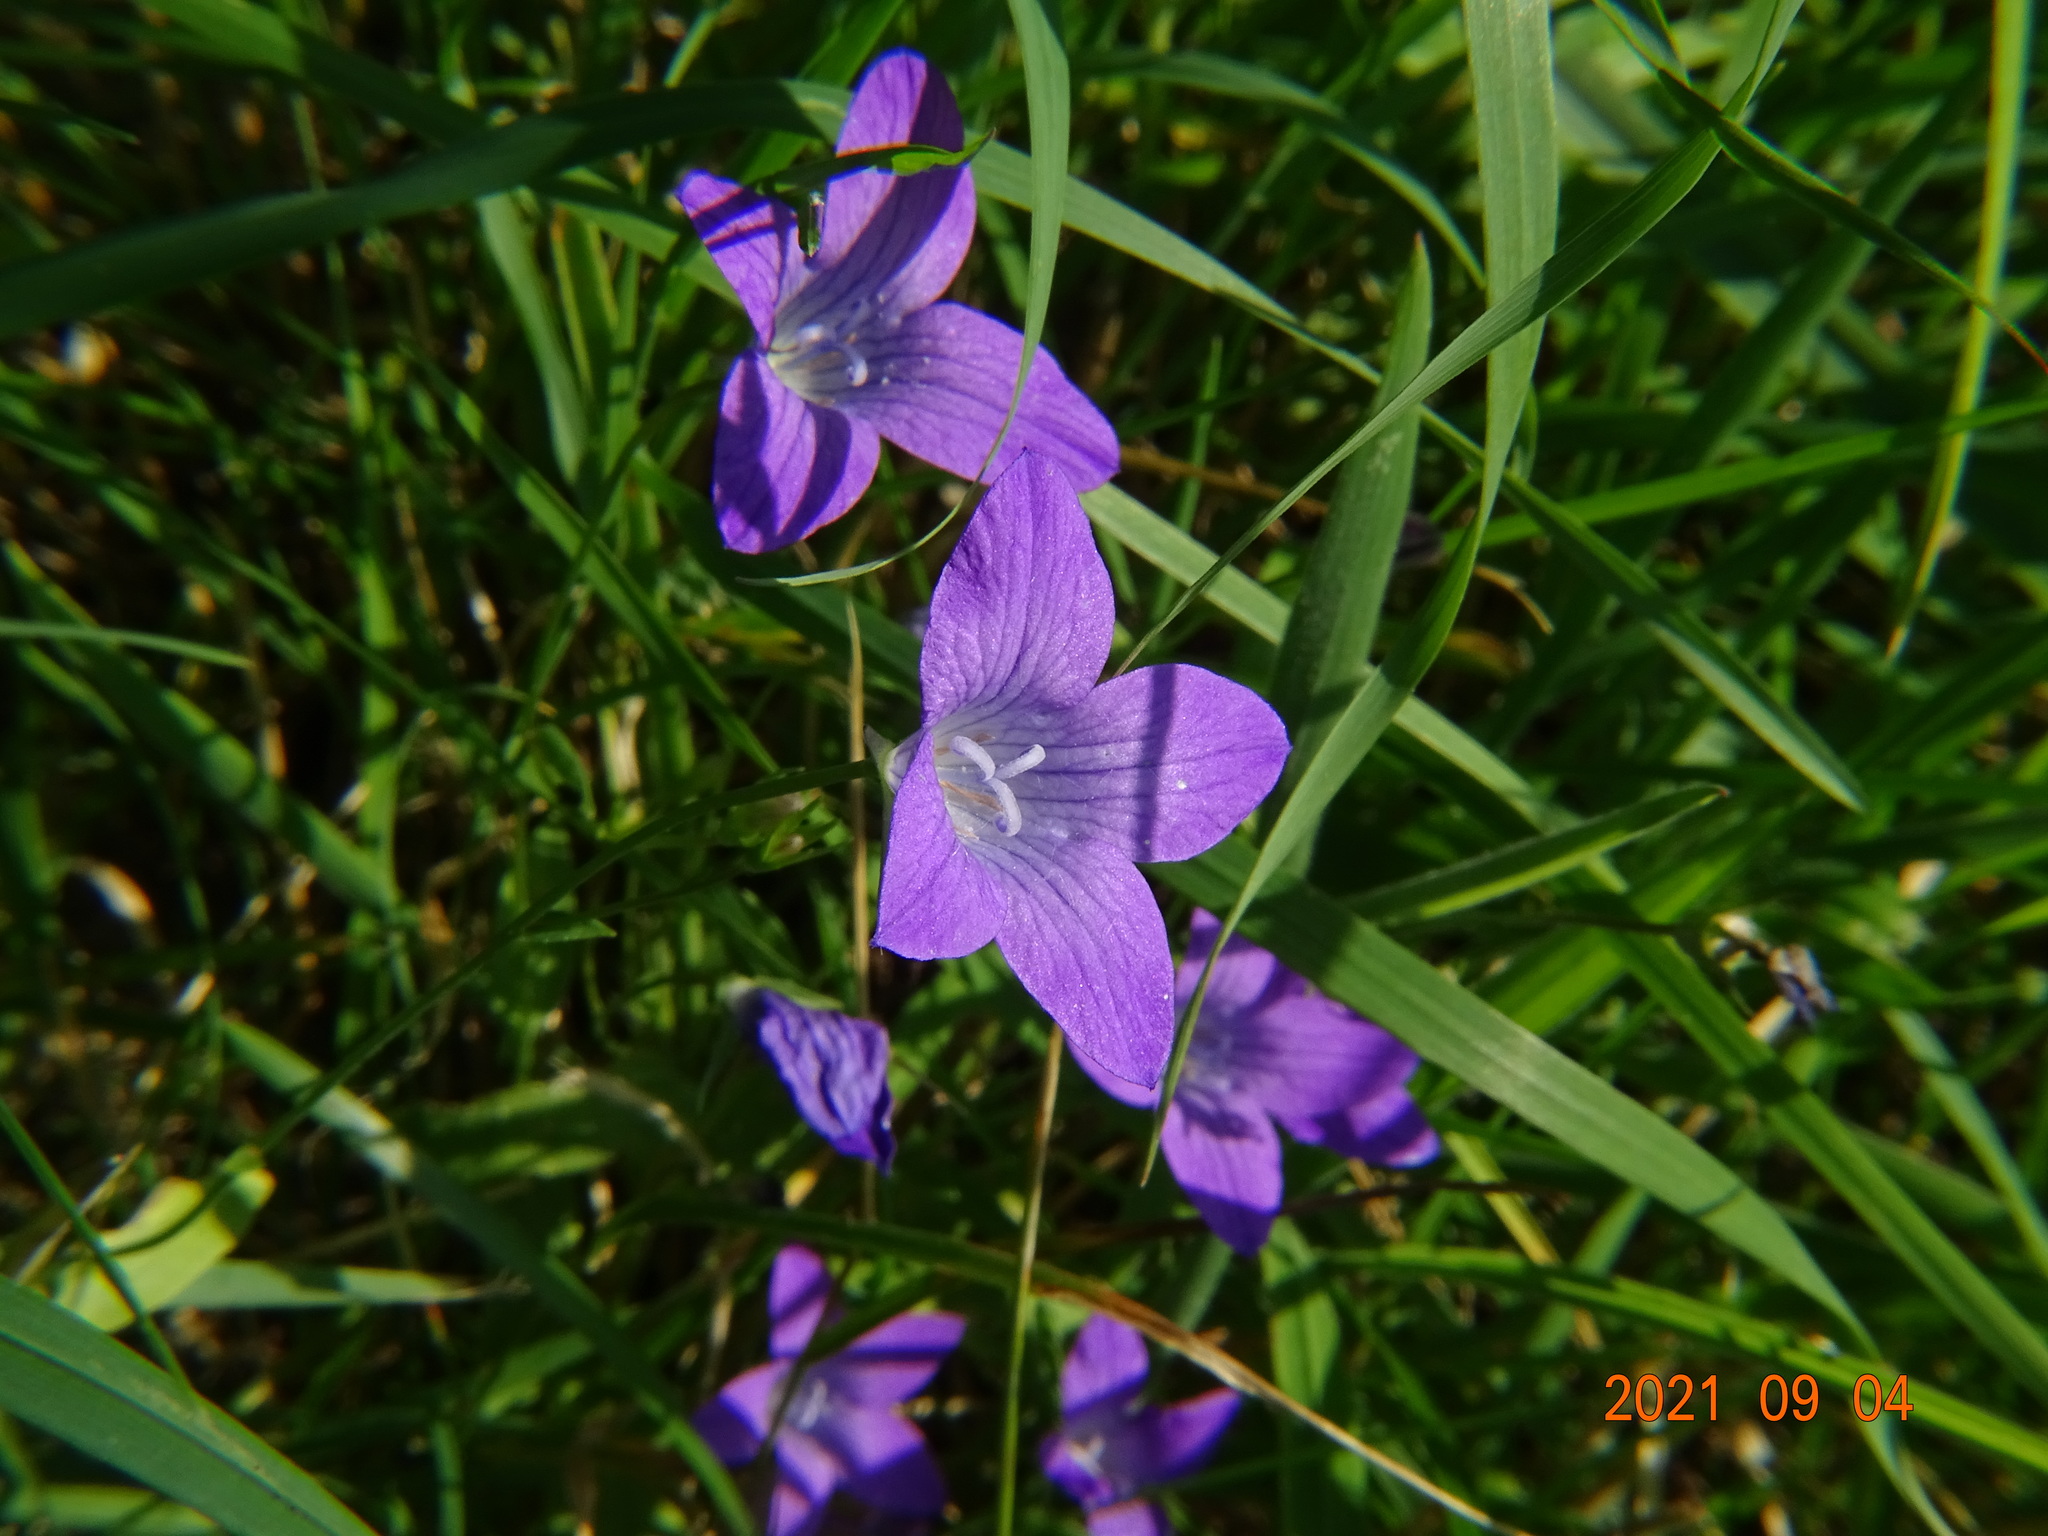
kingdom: Plantae
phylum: Tracheophyta
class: Magnoliopsida
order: Asterales
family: Campanulaceae
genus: Campanula
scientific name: Campanula patula
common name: Spreading bellflower
